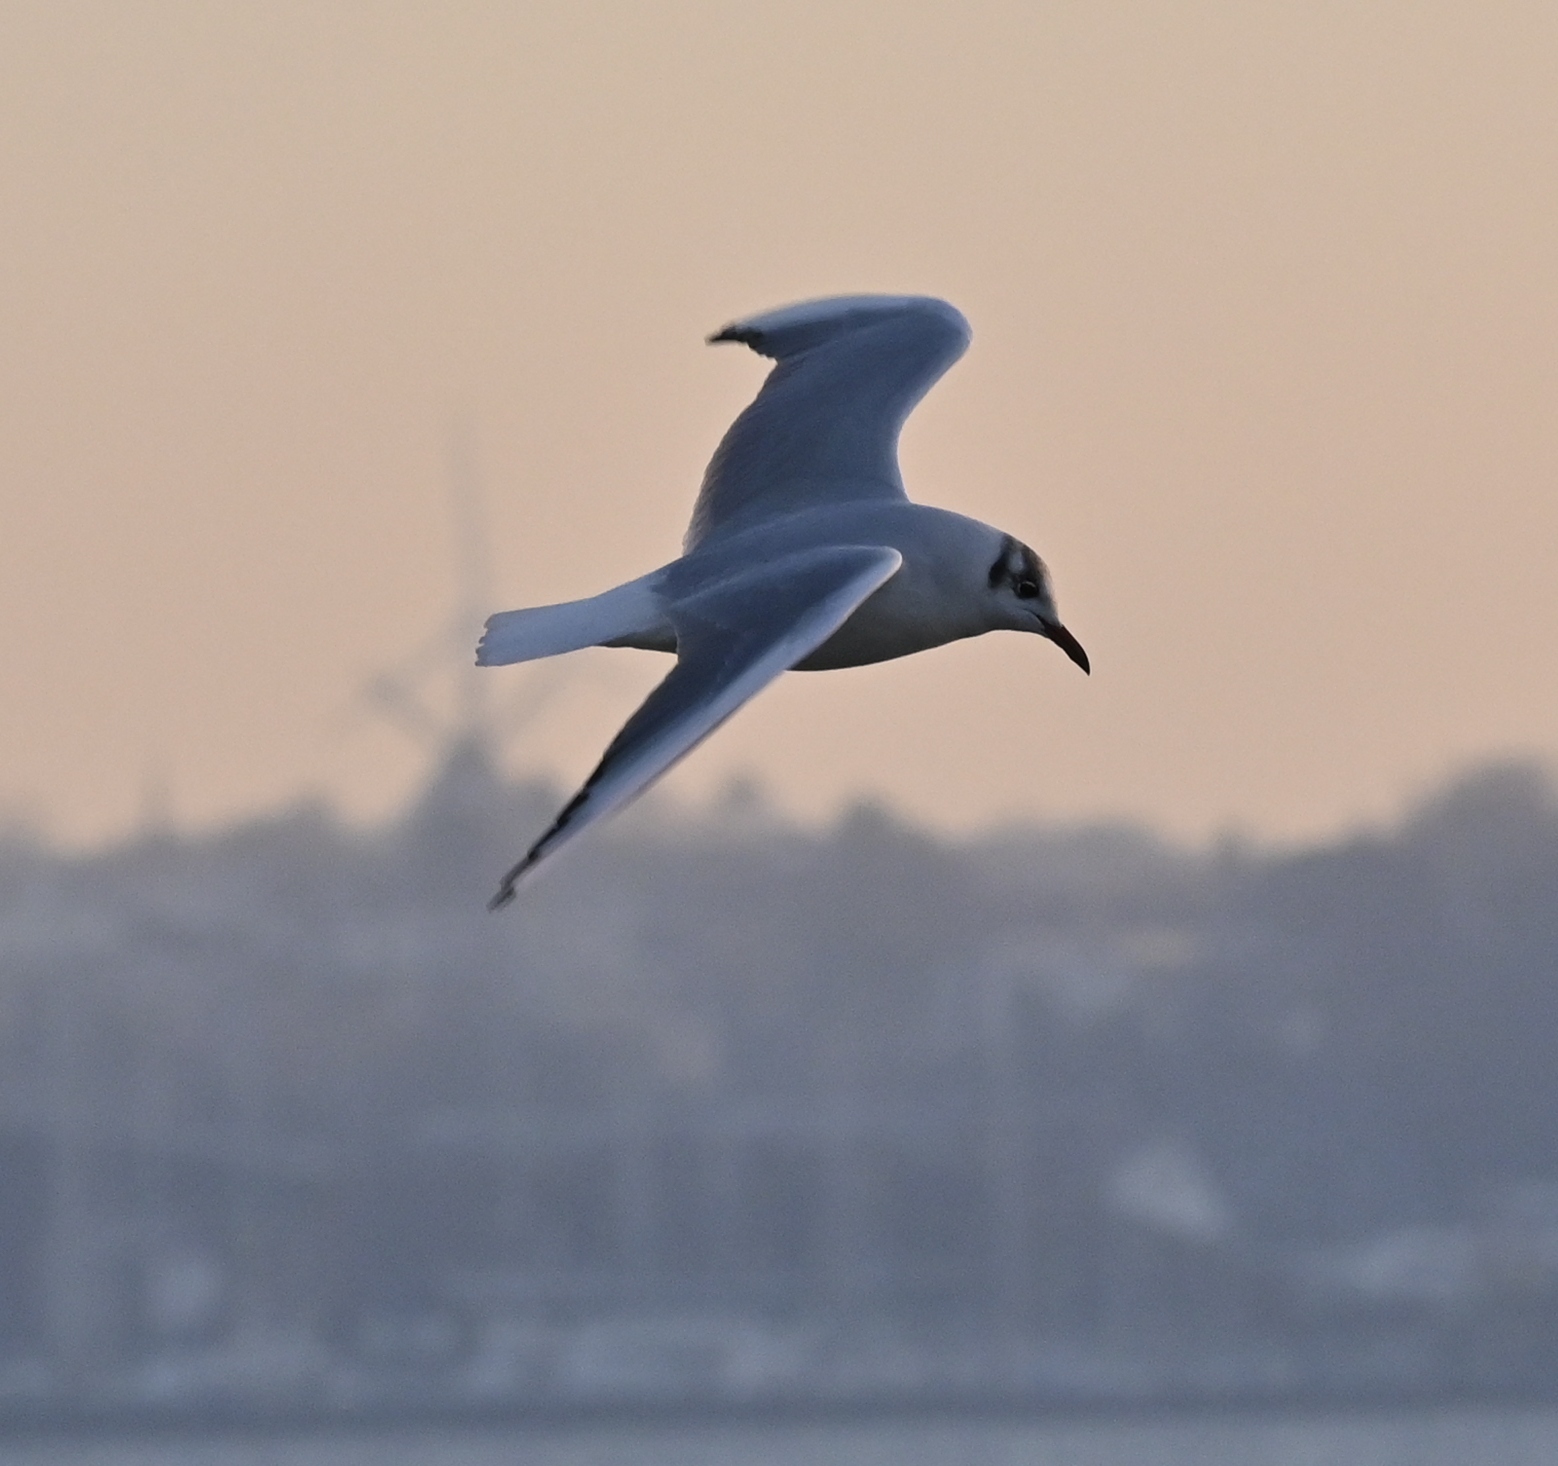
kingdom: Animalia
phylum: Chordata
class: Aves
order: Charadriiformes
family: Laridae
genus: Chroicocephalus
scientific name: Chroicocephalus ridibundus
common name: Black-headed gull
